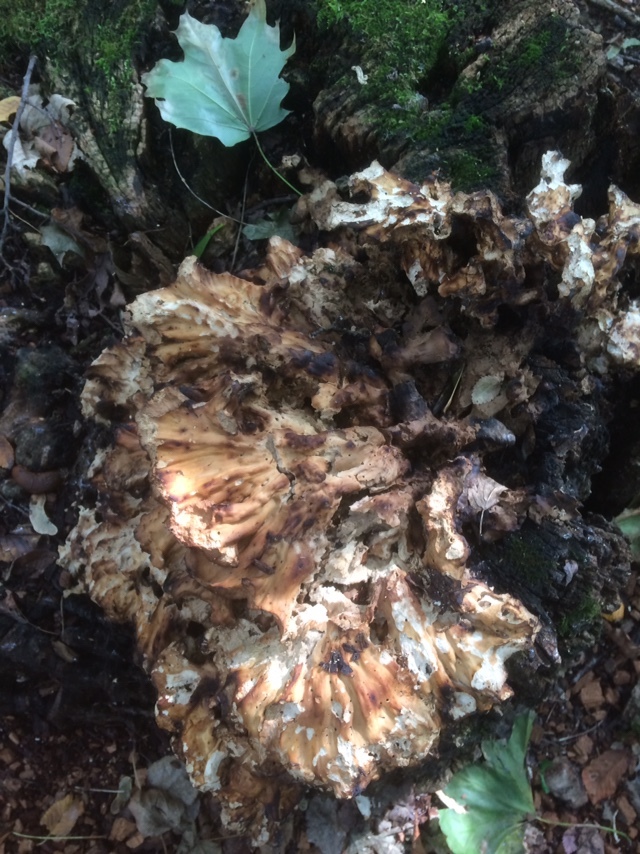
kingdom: Fungi
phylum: Basidiomycota
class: Agaricomycetes
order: Polyporales
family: Meripilaceae
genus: Meripilus
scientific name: Meripilus giganteus
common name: Giant polypore
